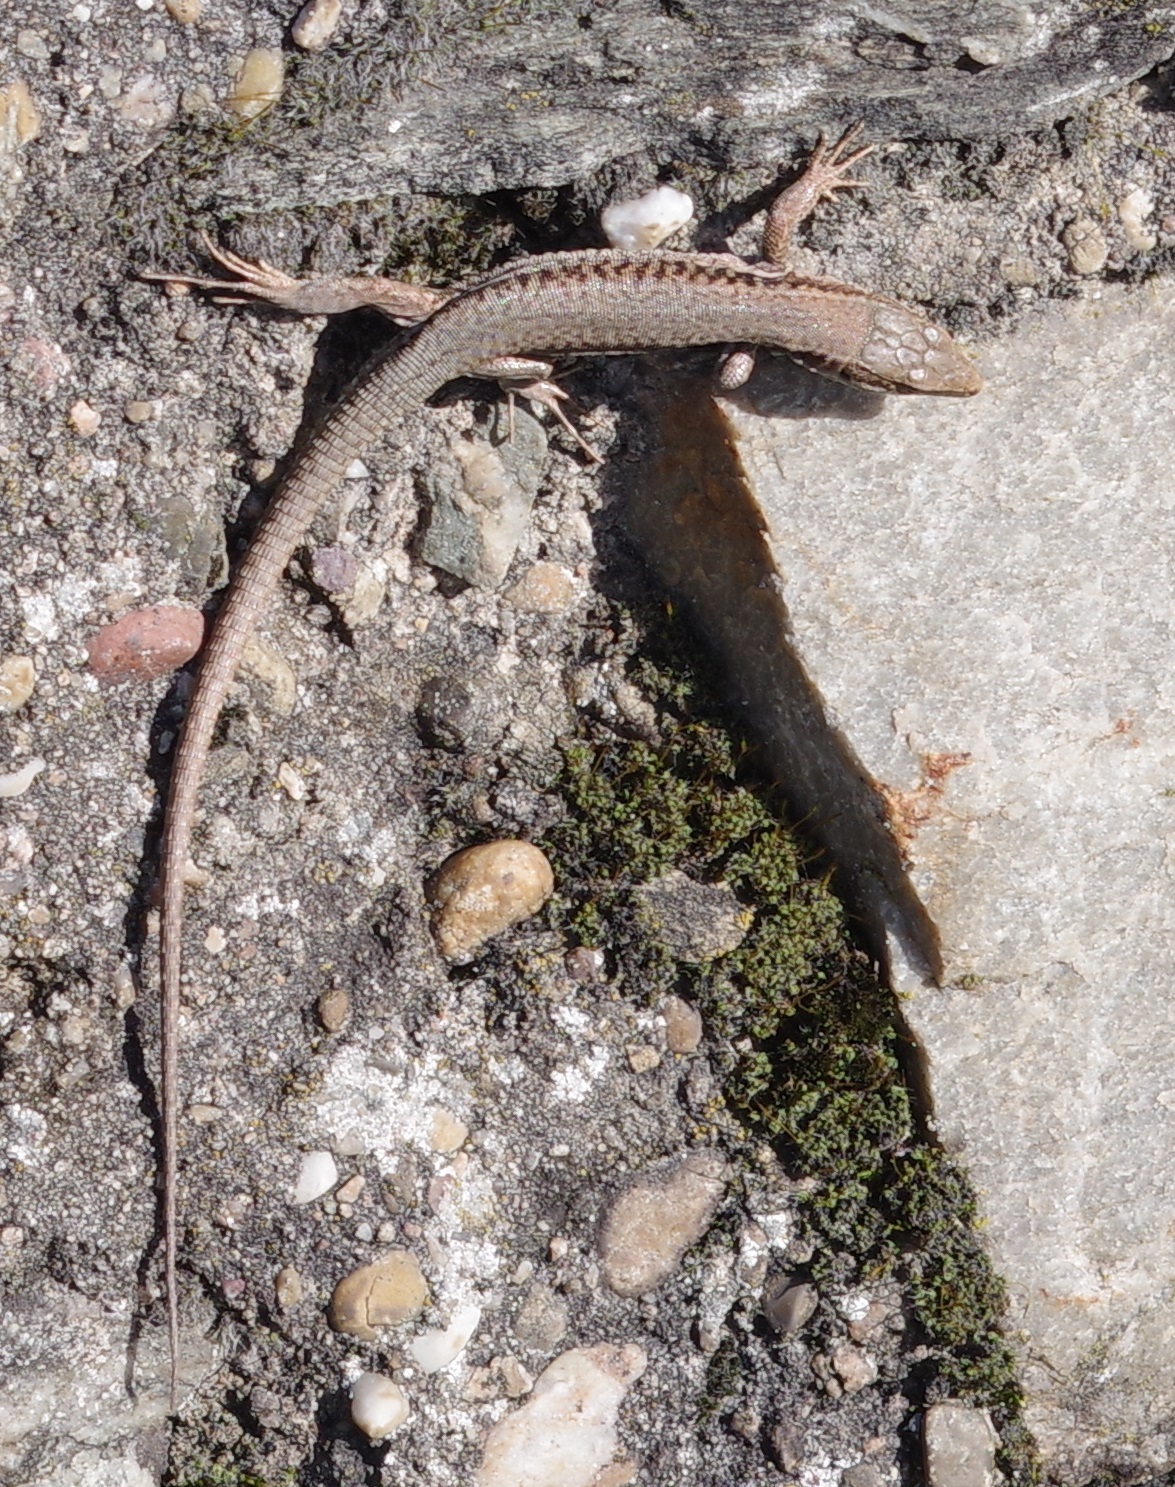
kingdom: Animalia
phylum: Chordata
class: Squamata
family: Lacertidae
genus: Podarcis
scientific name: Podarcis muralis
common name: Common wall lizard
